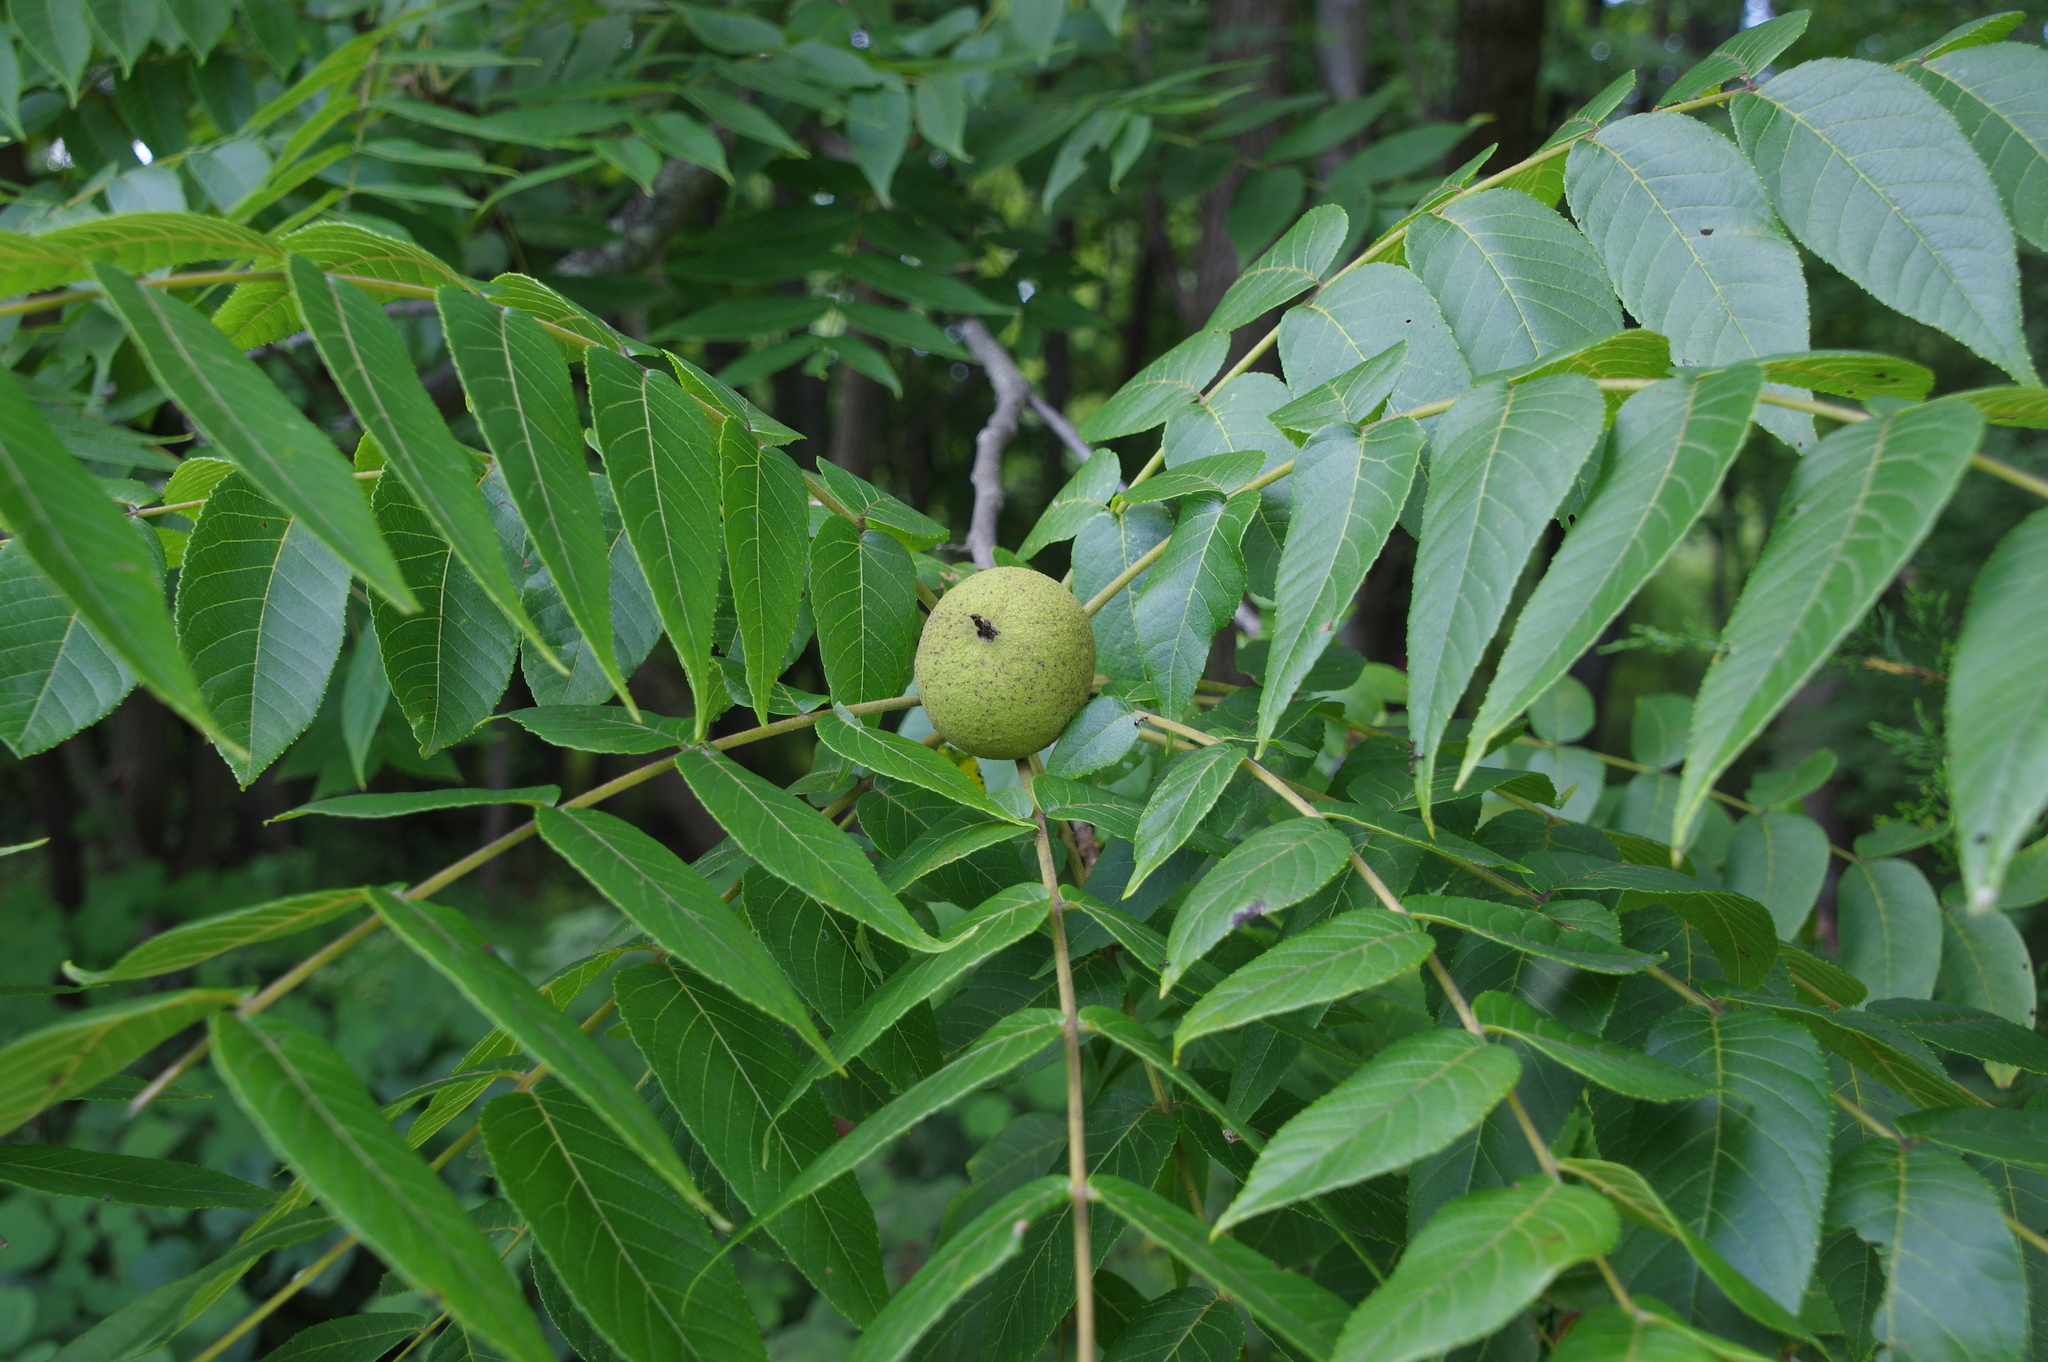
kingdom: Plantae
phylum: Tracheophyta
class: Magnoliopsida
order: Fagales
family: Juglandaceae
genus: Juglans
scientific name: Juglans nigra
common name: Black walnut
